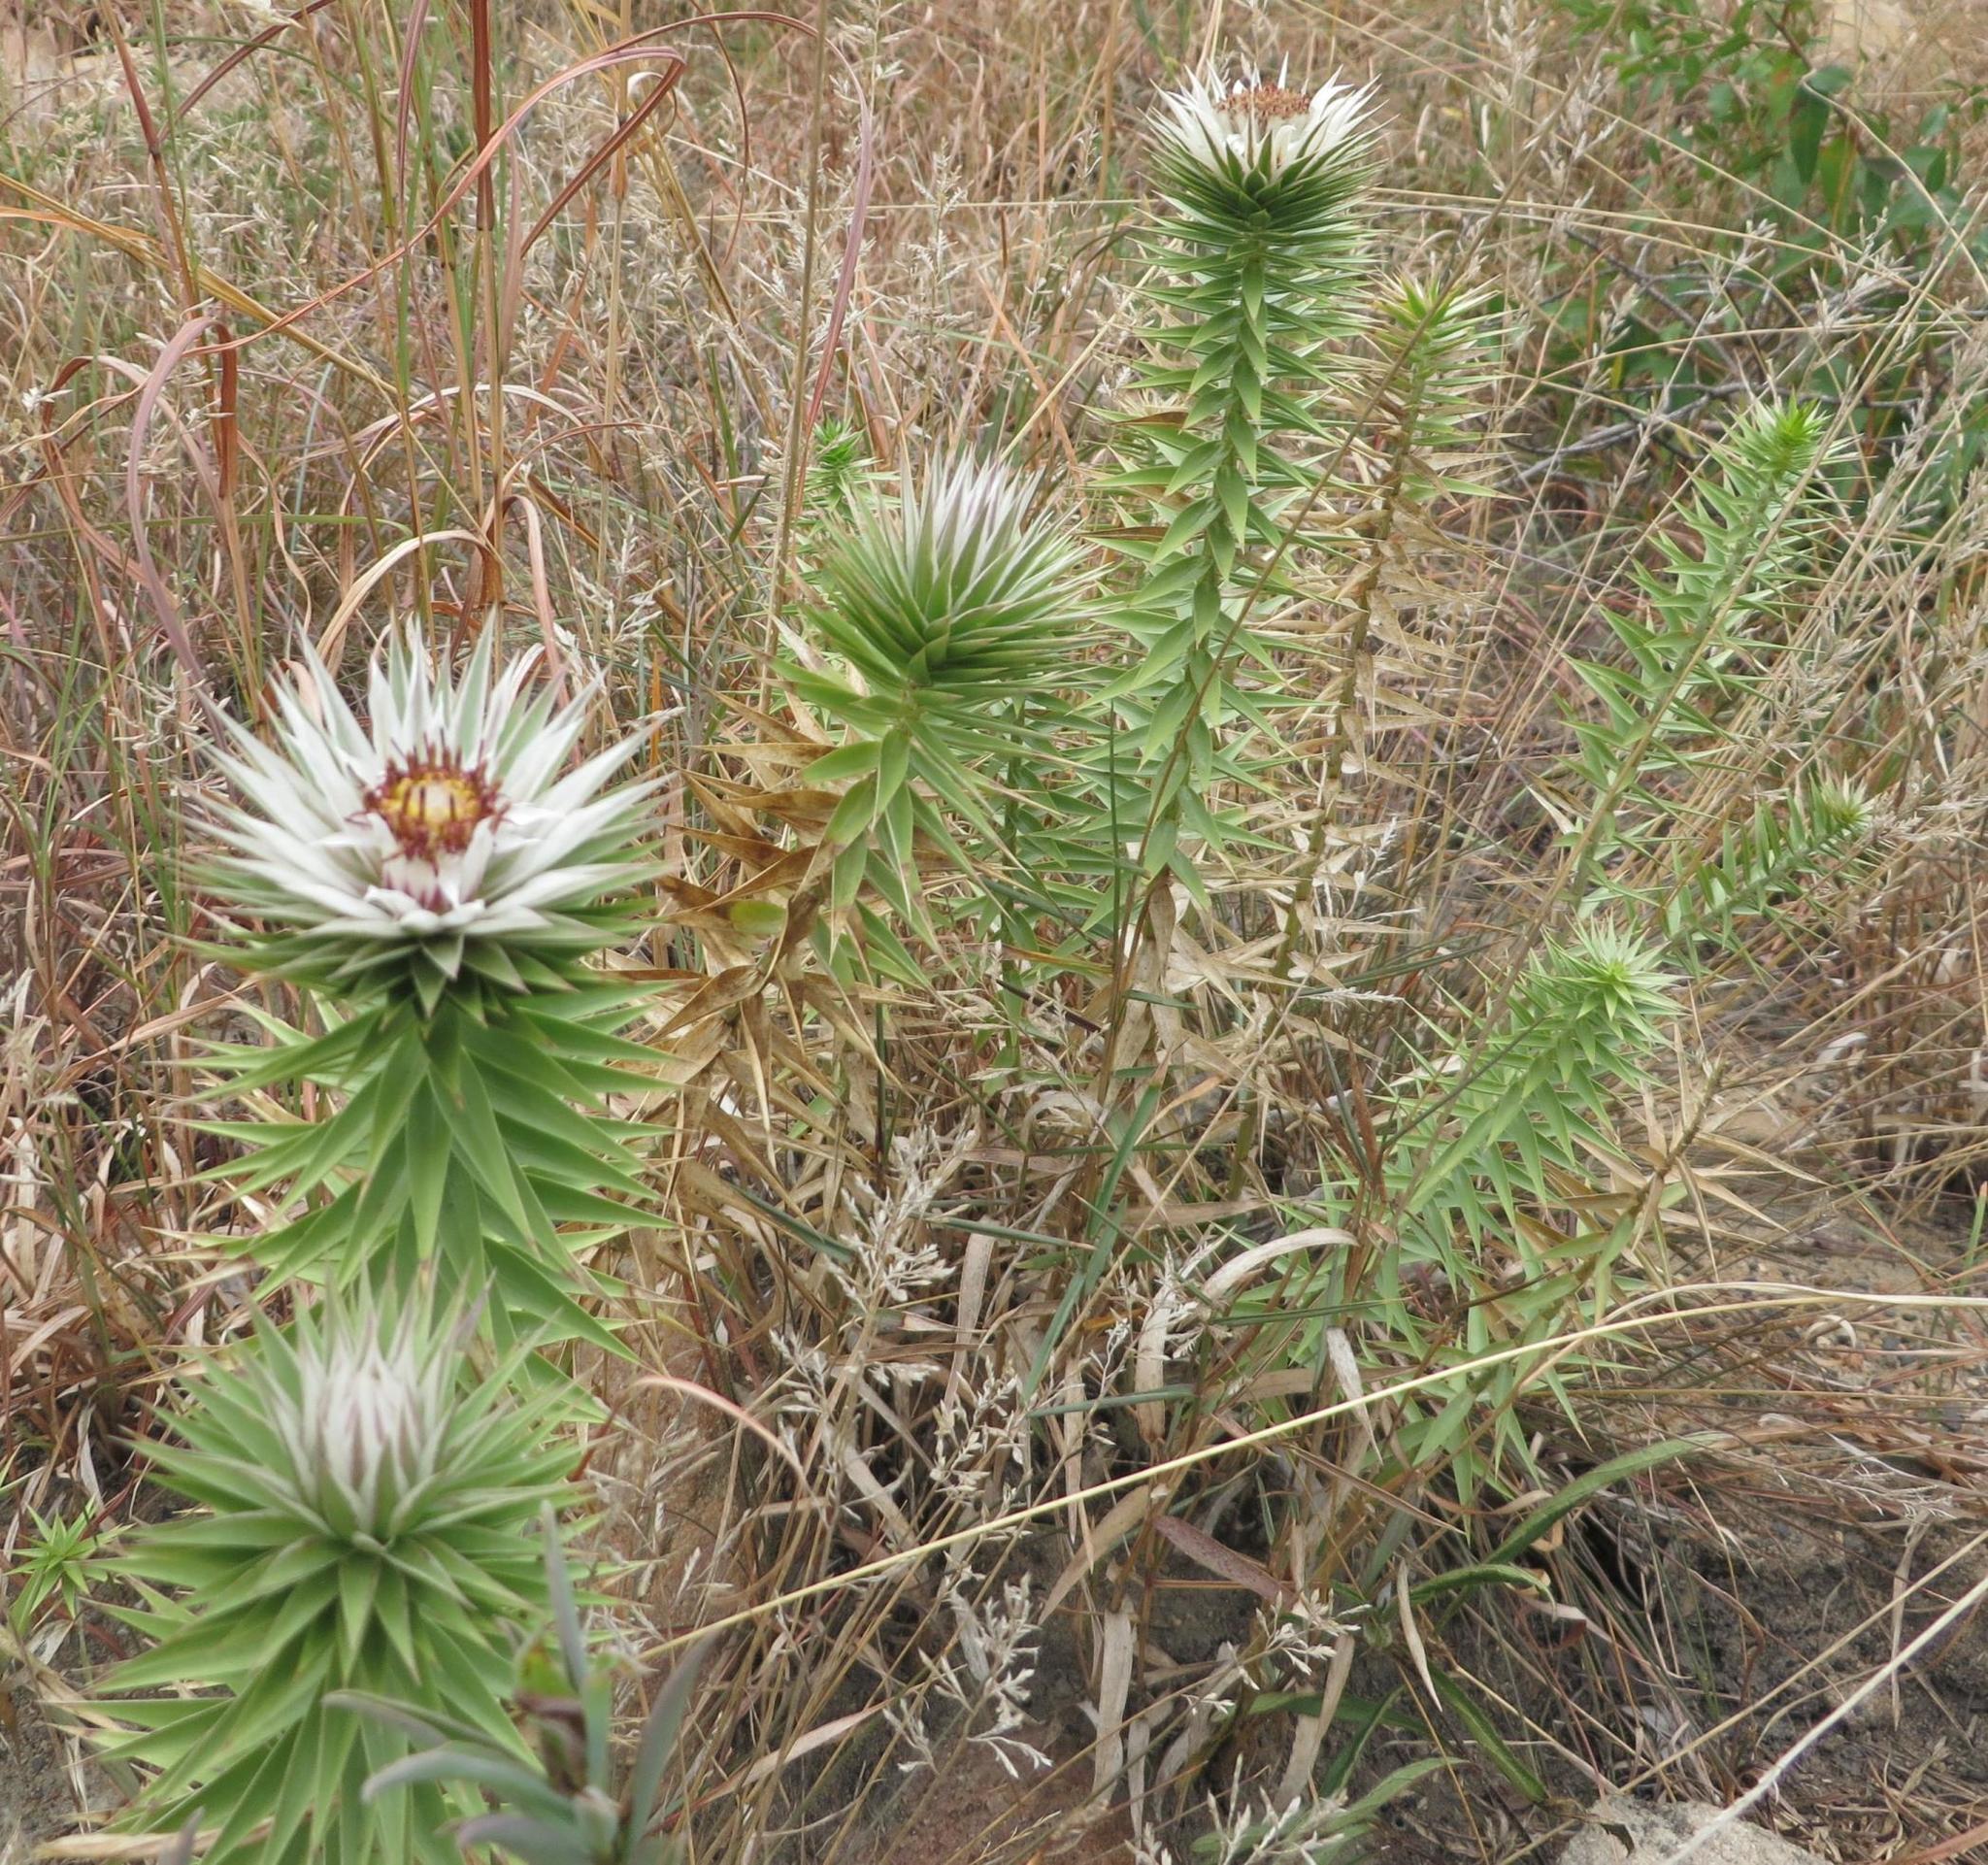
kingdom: Plantae
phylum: Tracheophyta
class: Magnoliopsida
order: Asterales
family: Asteraceae
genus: Macledium
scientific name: Macledium zeyheri
